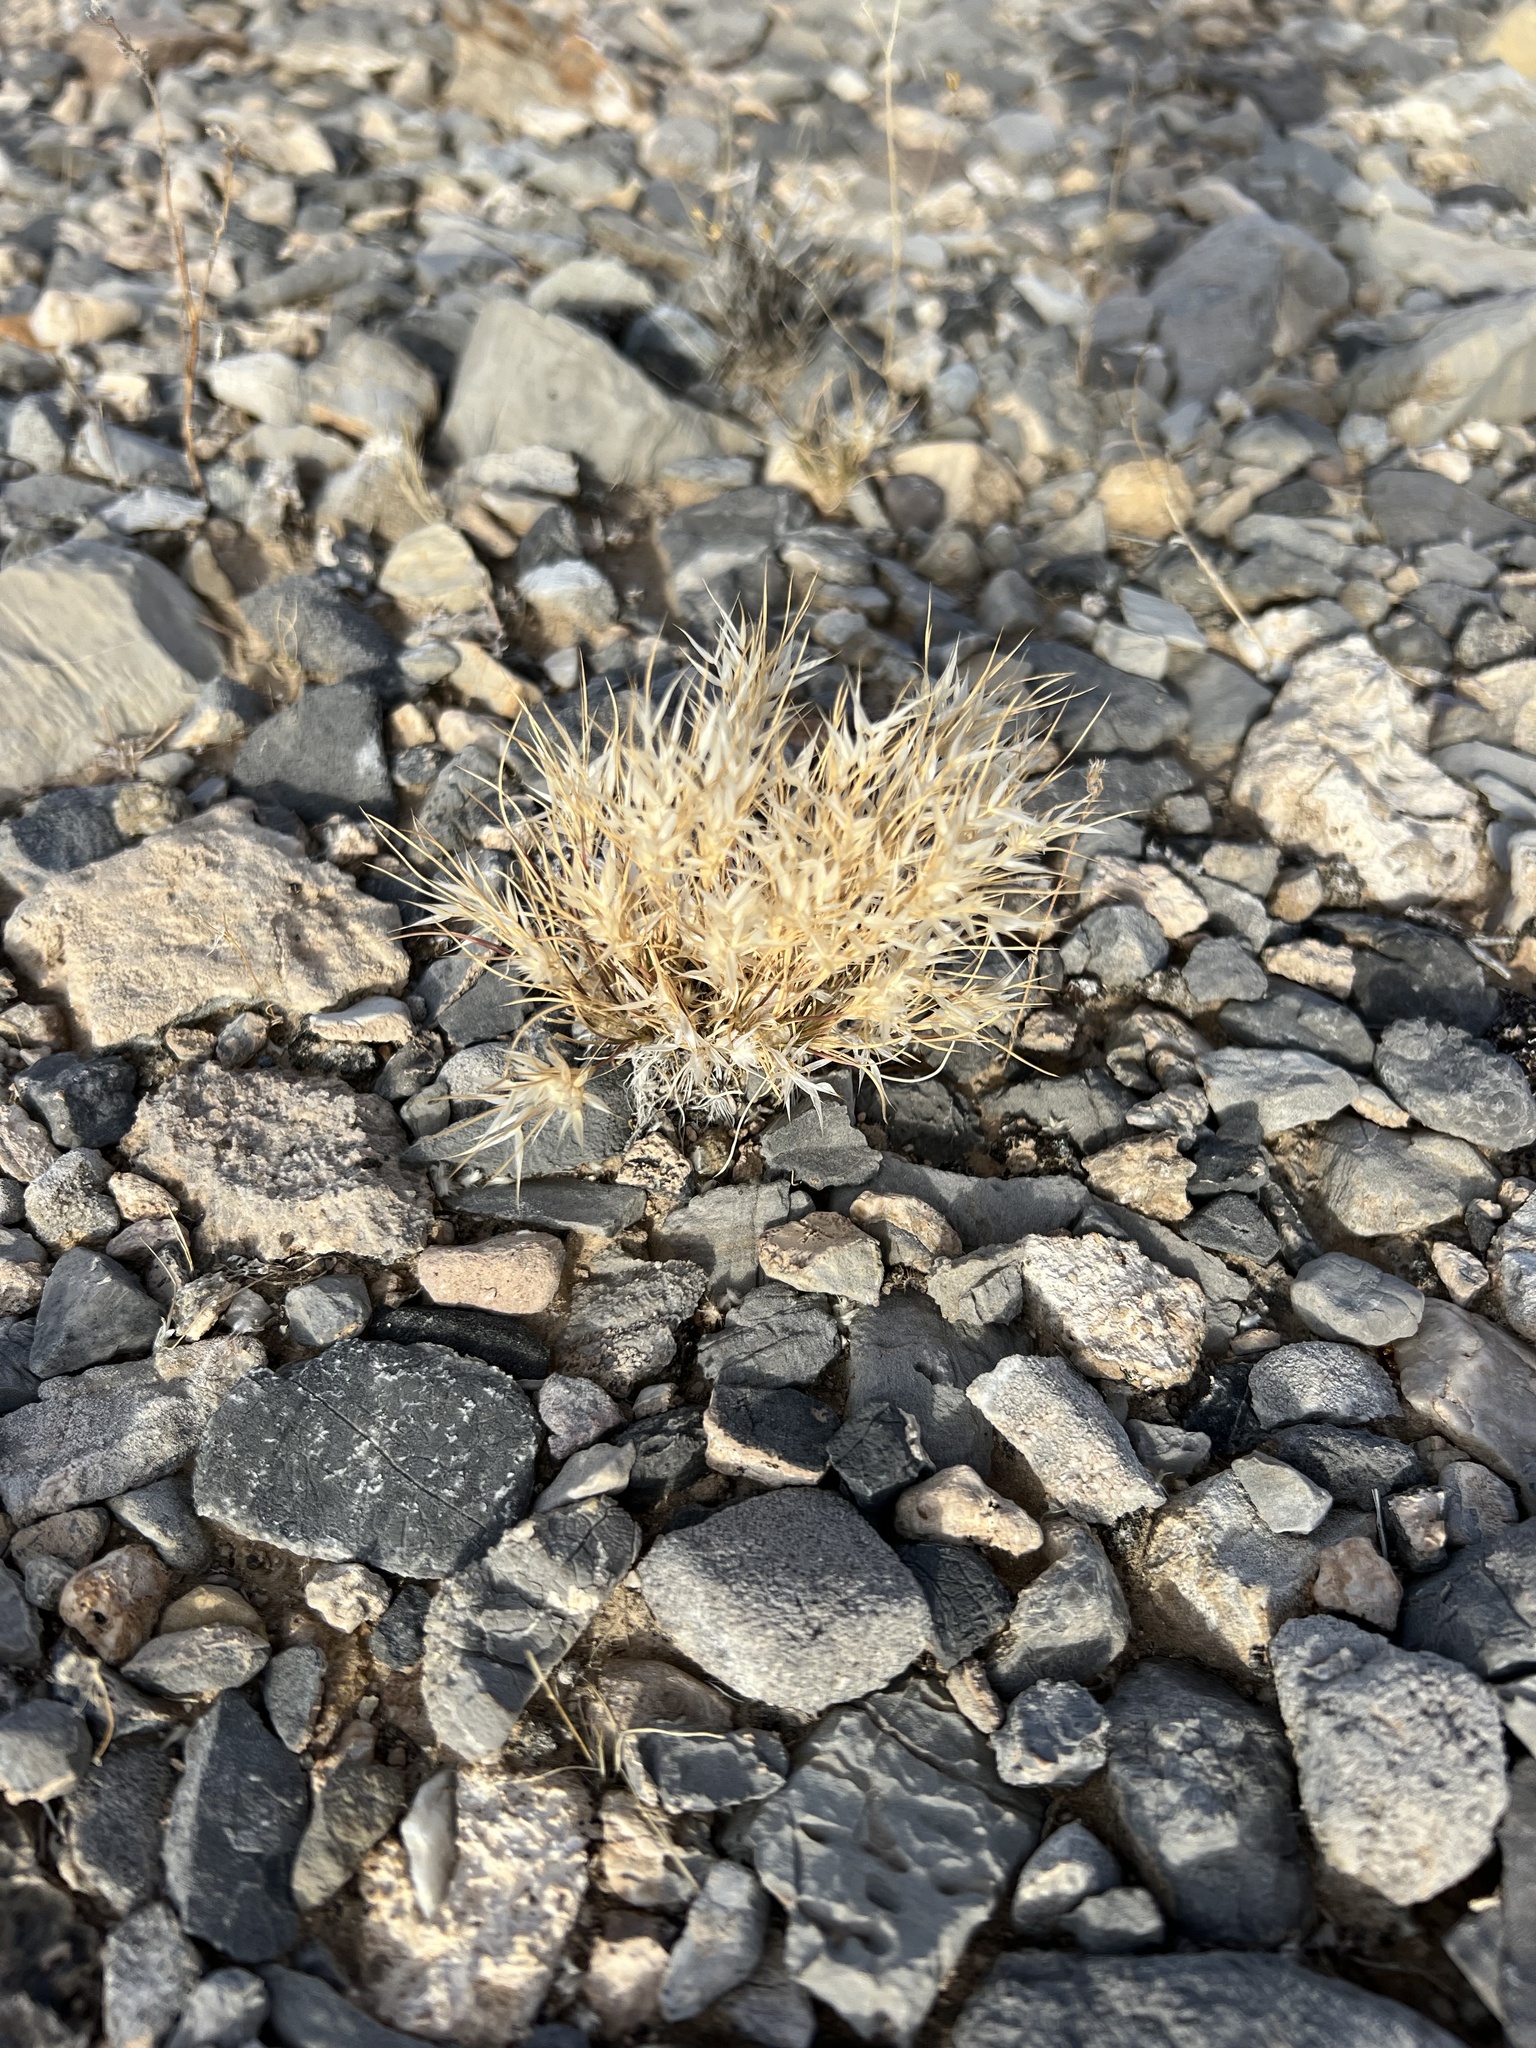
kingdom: Plantae
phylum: Tracheophyta
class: Liliopsida
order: Poales
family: Poaceae
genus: Dasyochloa
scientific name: Dasyochloa pulchella
